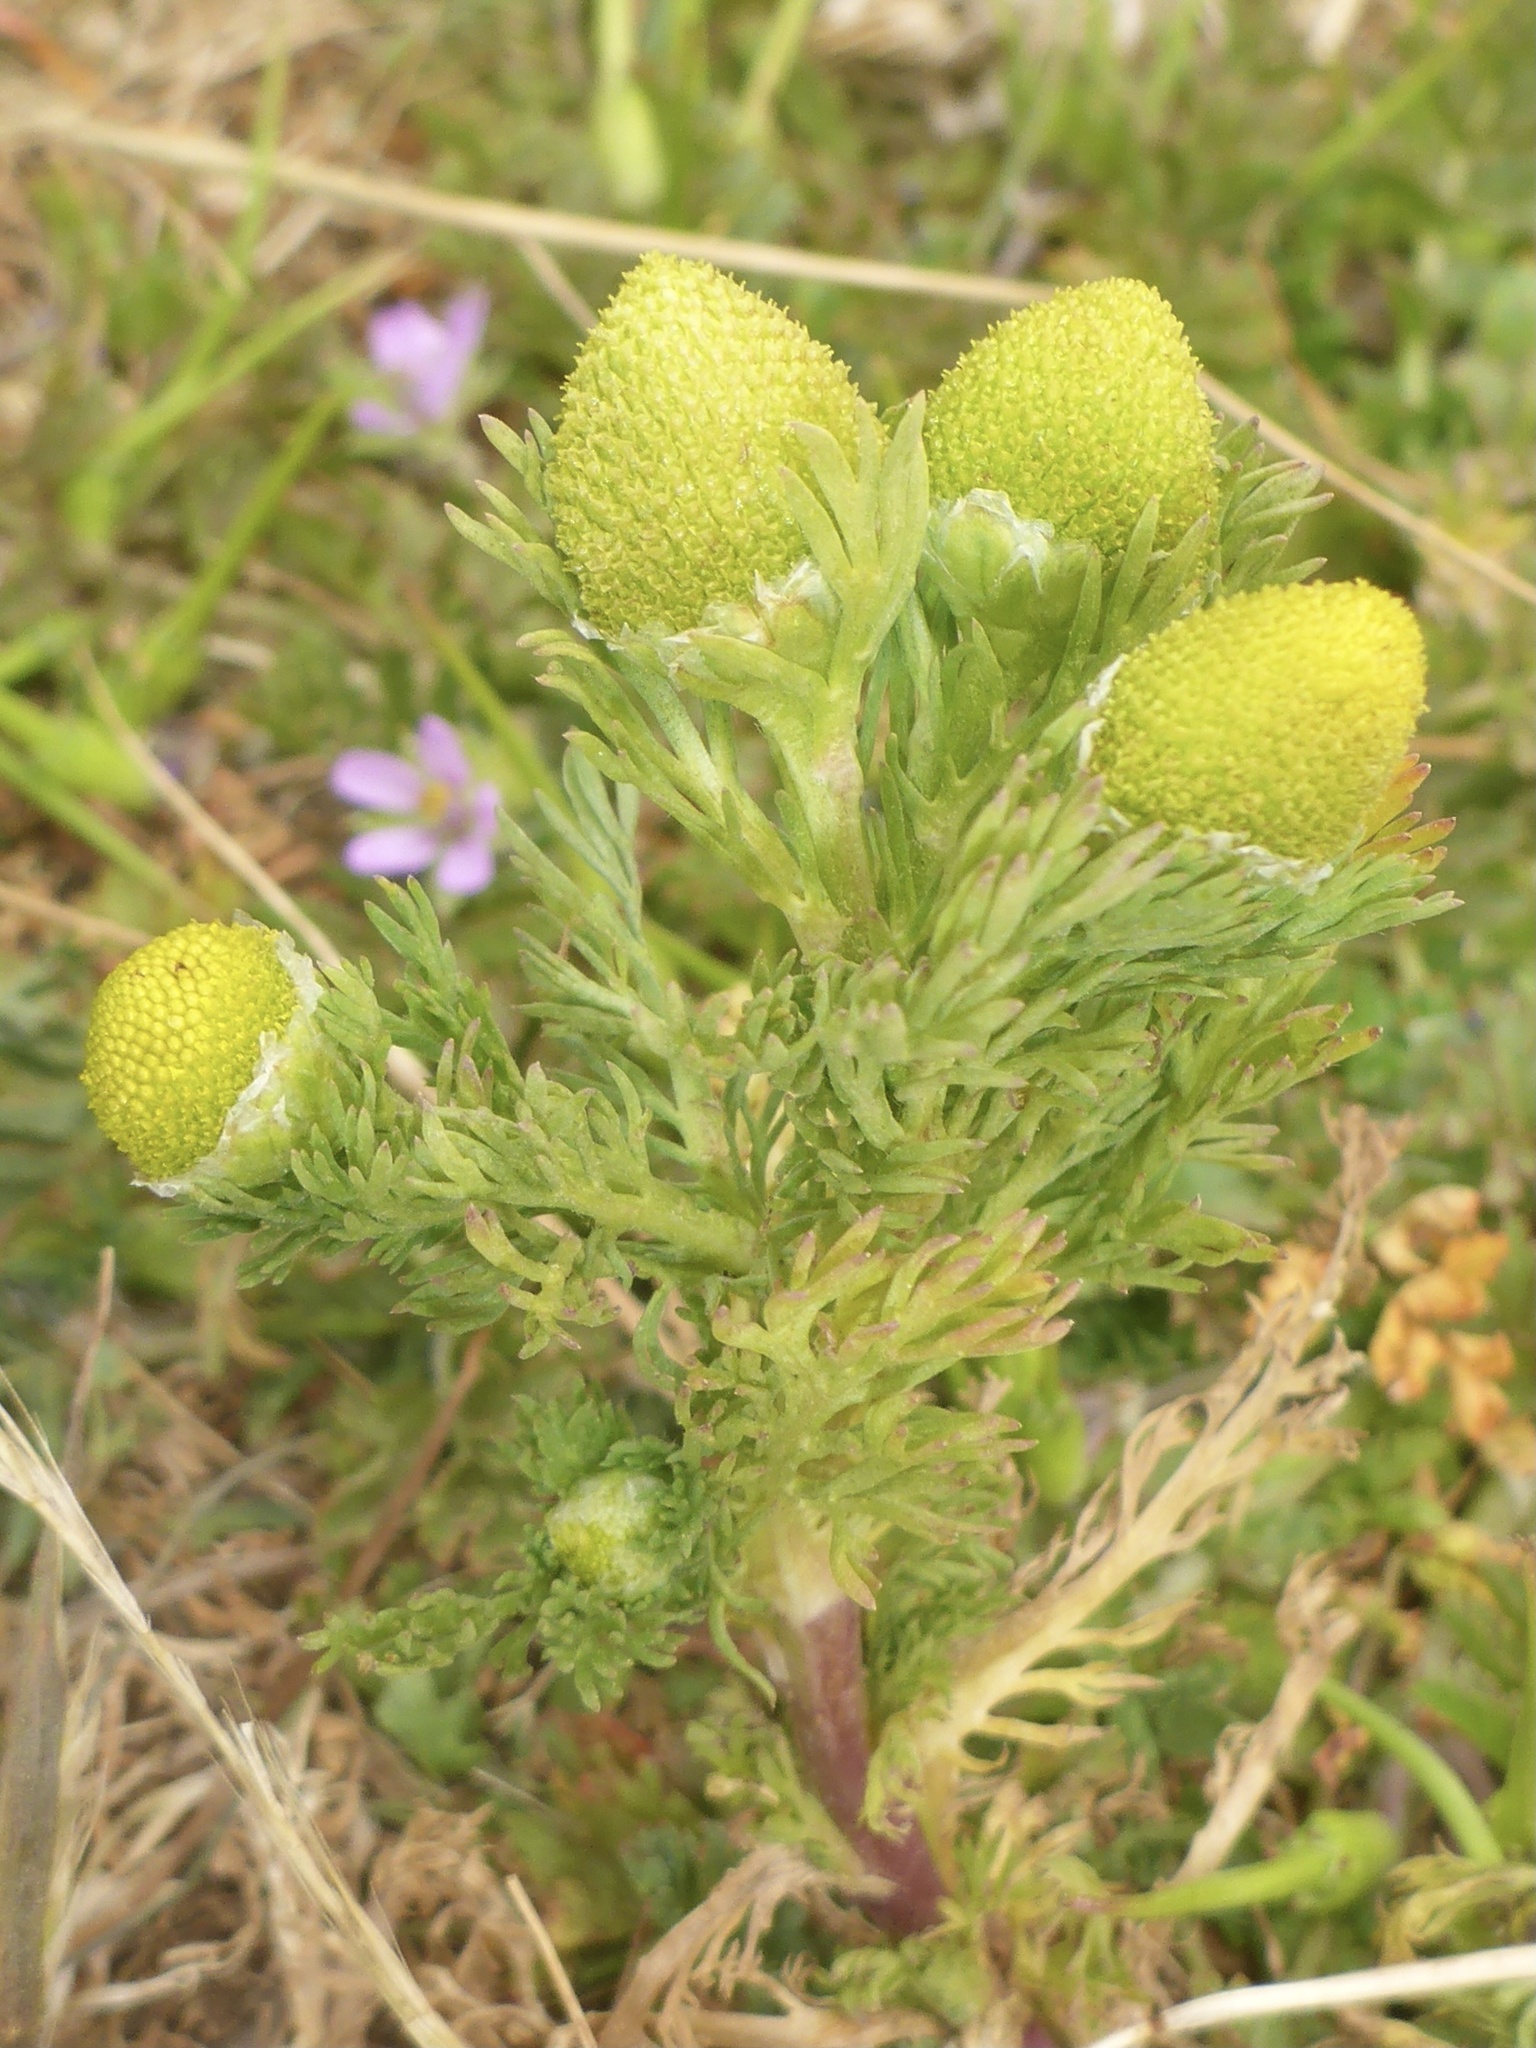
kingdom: Plantae
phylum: Tracheophyta
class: Magnoliopsida
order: Asterales
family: Asteraceae
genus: Matricaria
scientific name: Matricaria discoidea
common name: Disc mayweed
